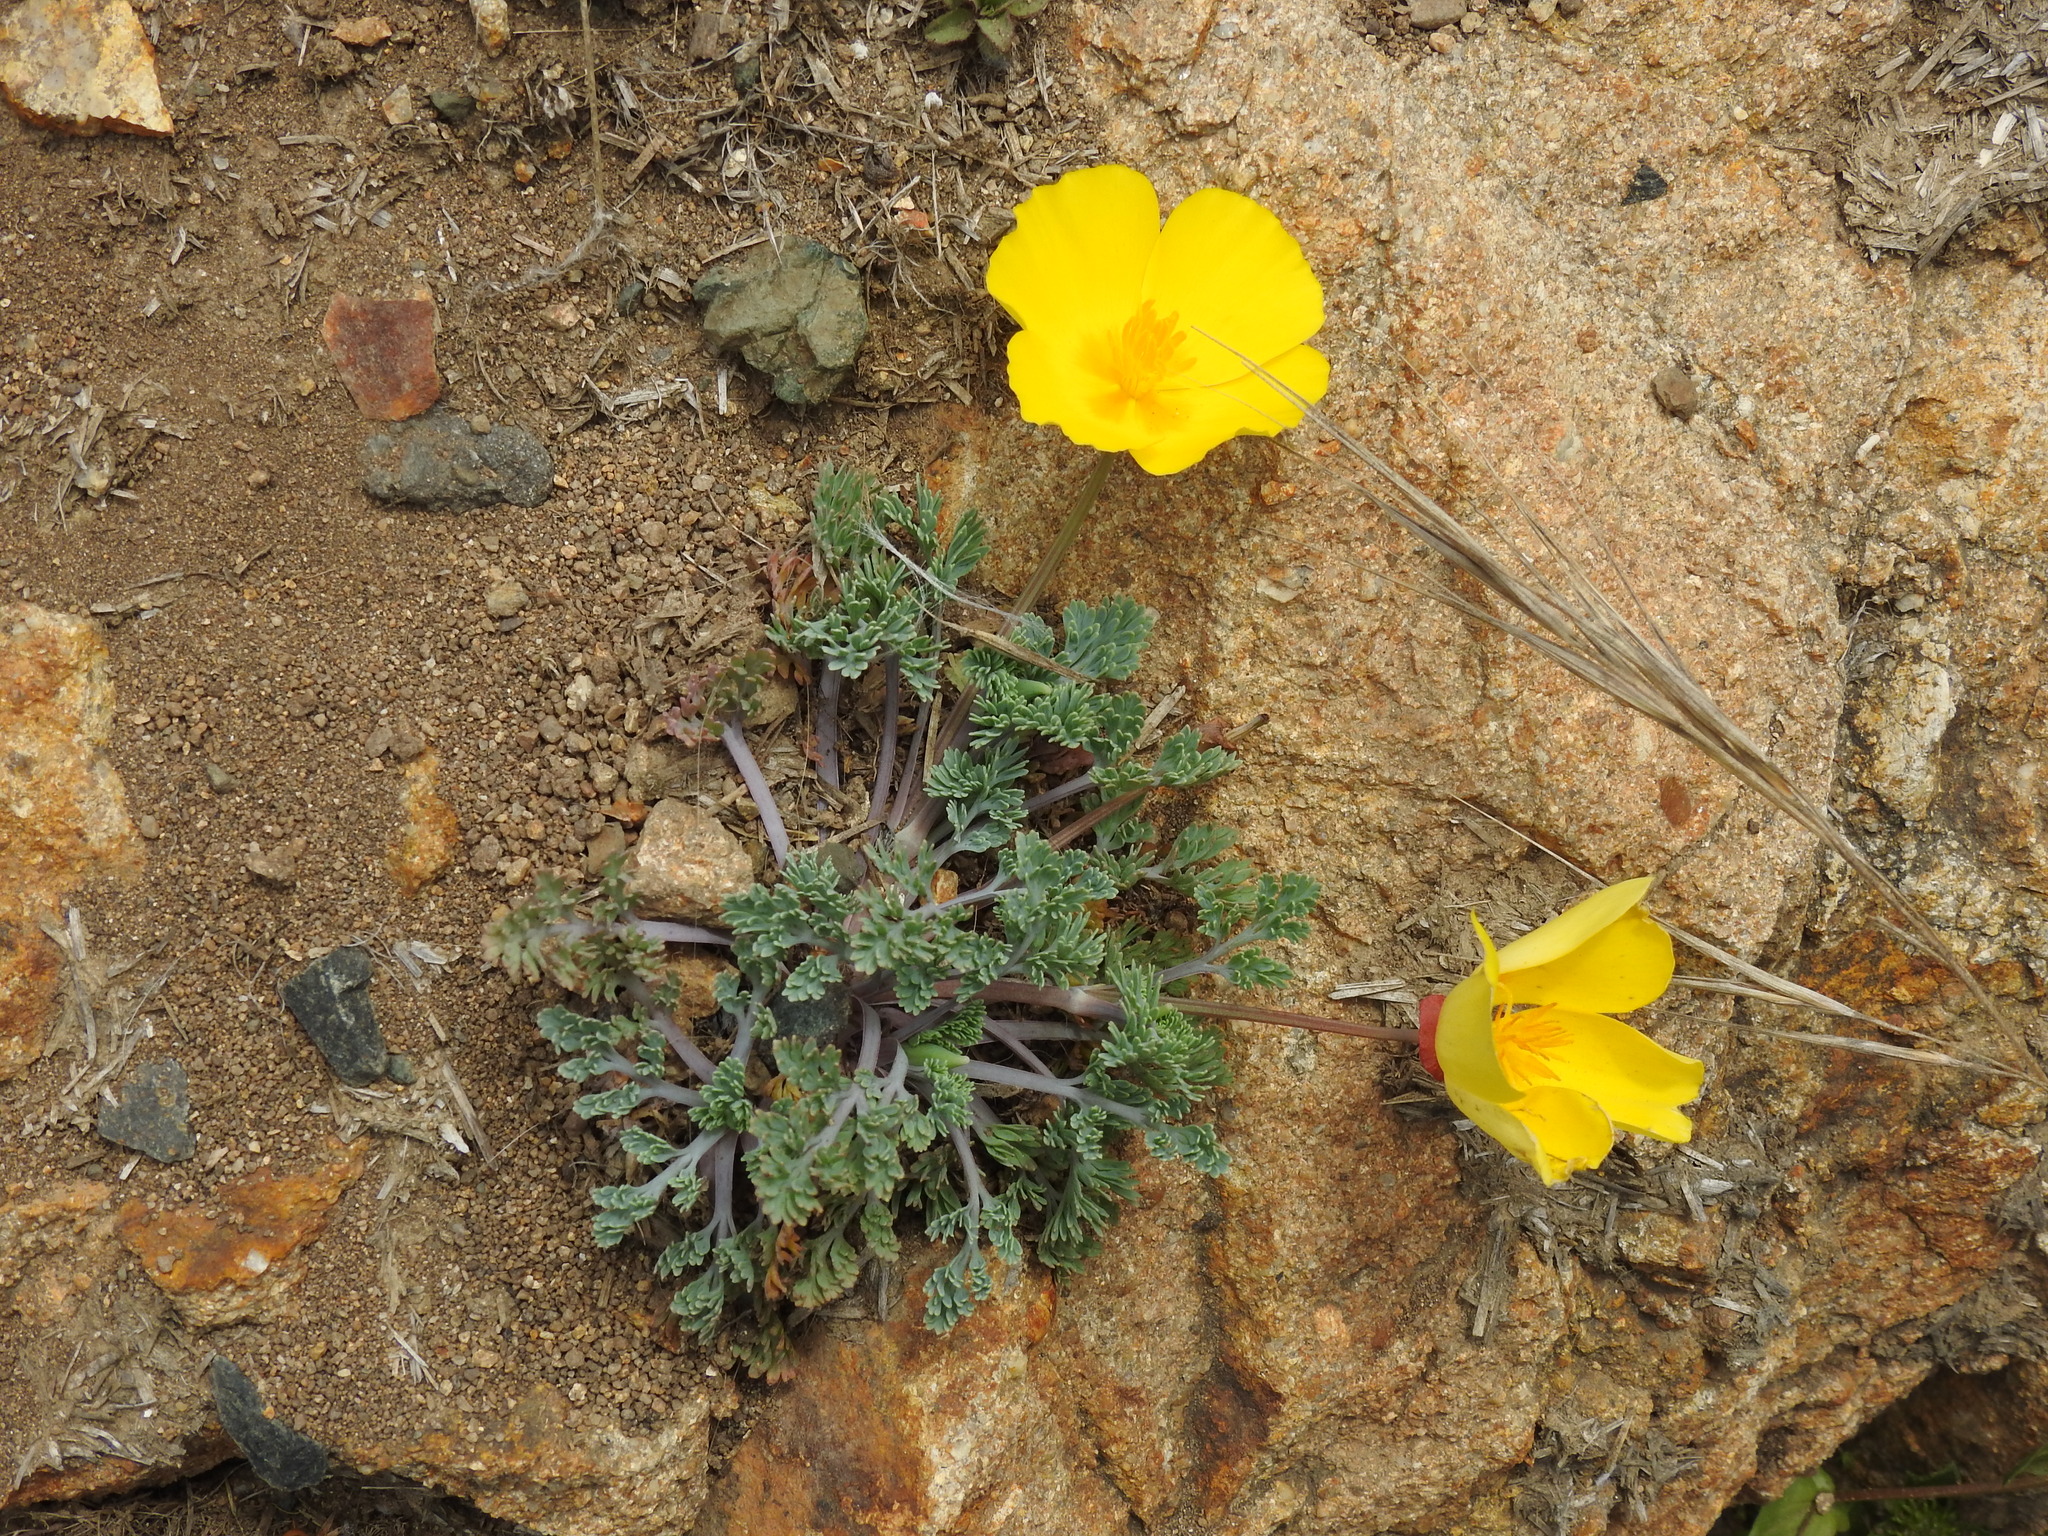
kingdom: Plantae
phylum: Tracheophyta
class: Magnoliopsida
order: Ranunculales
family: Papaveraceae
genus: Eschscholzia
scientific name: Eschscholzia californica
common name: California poppy
